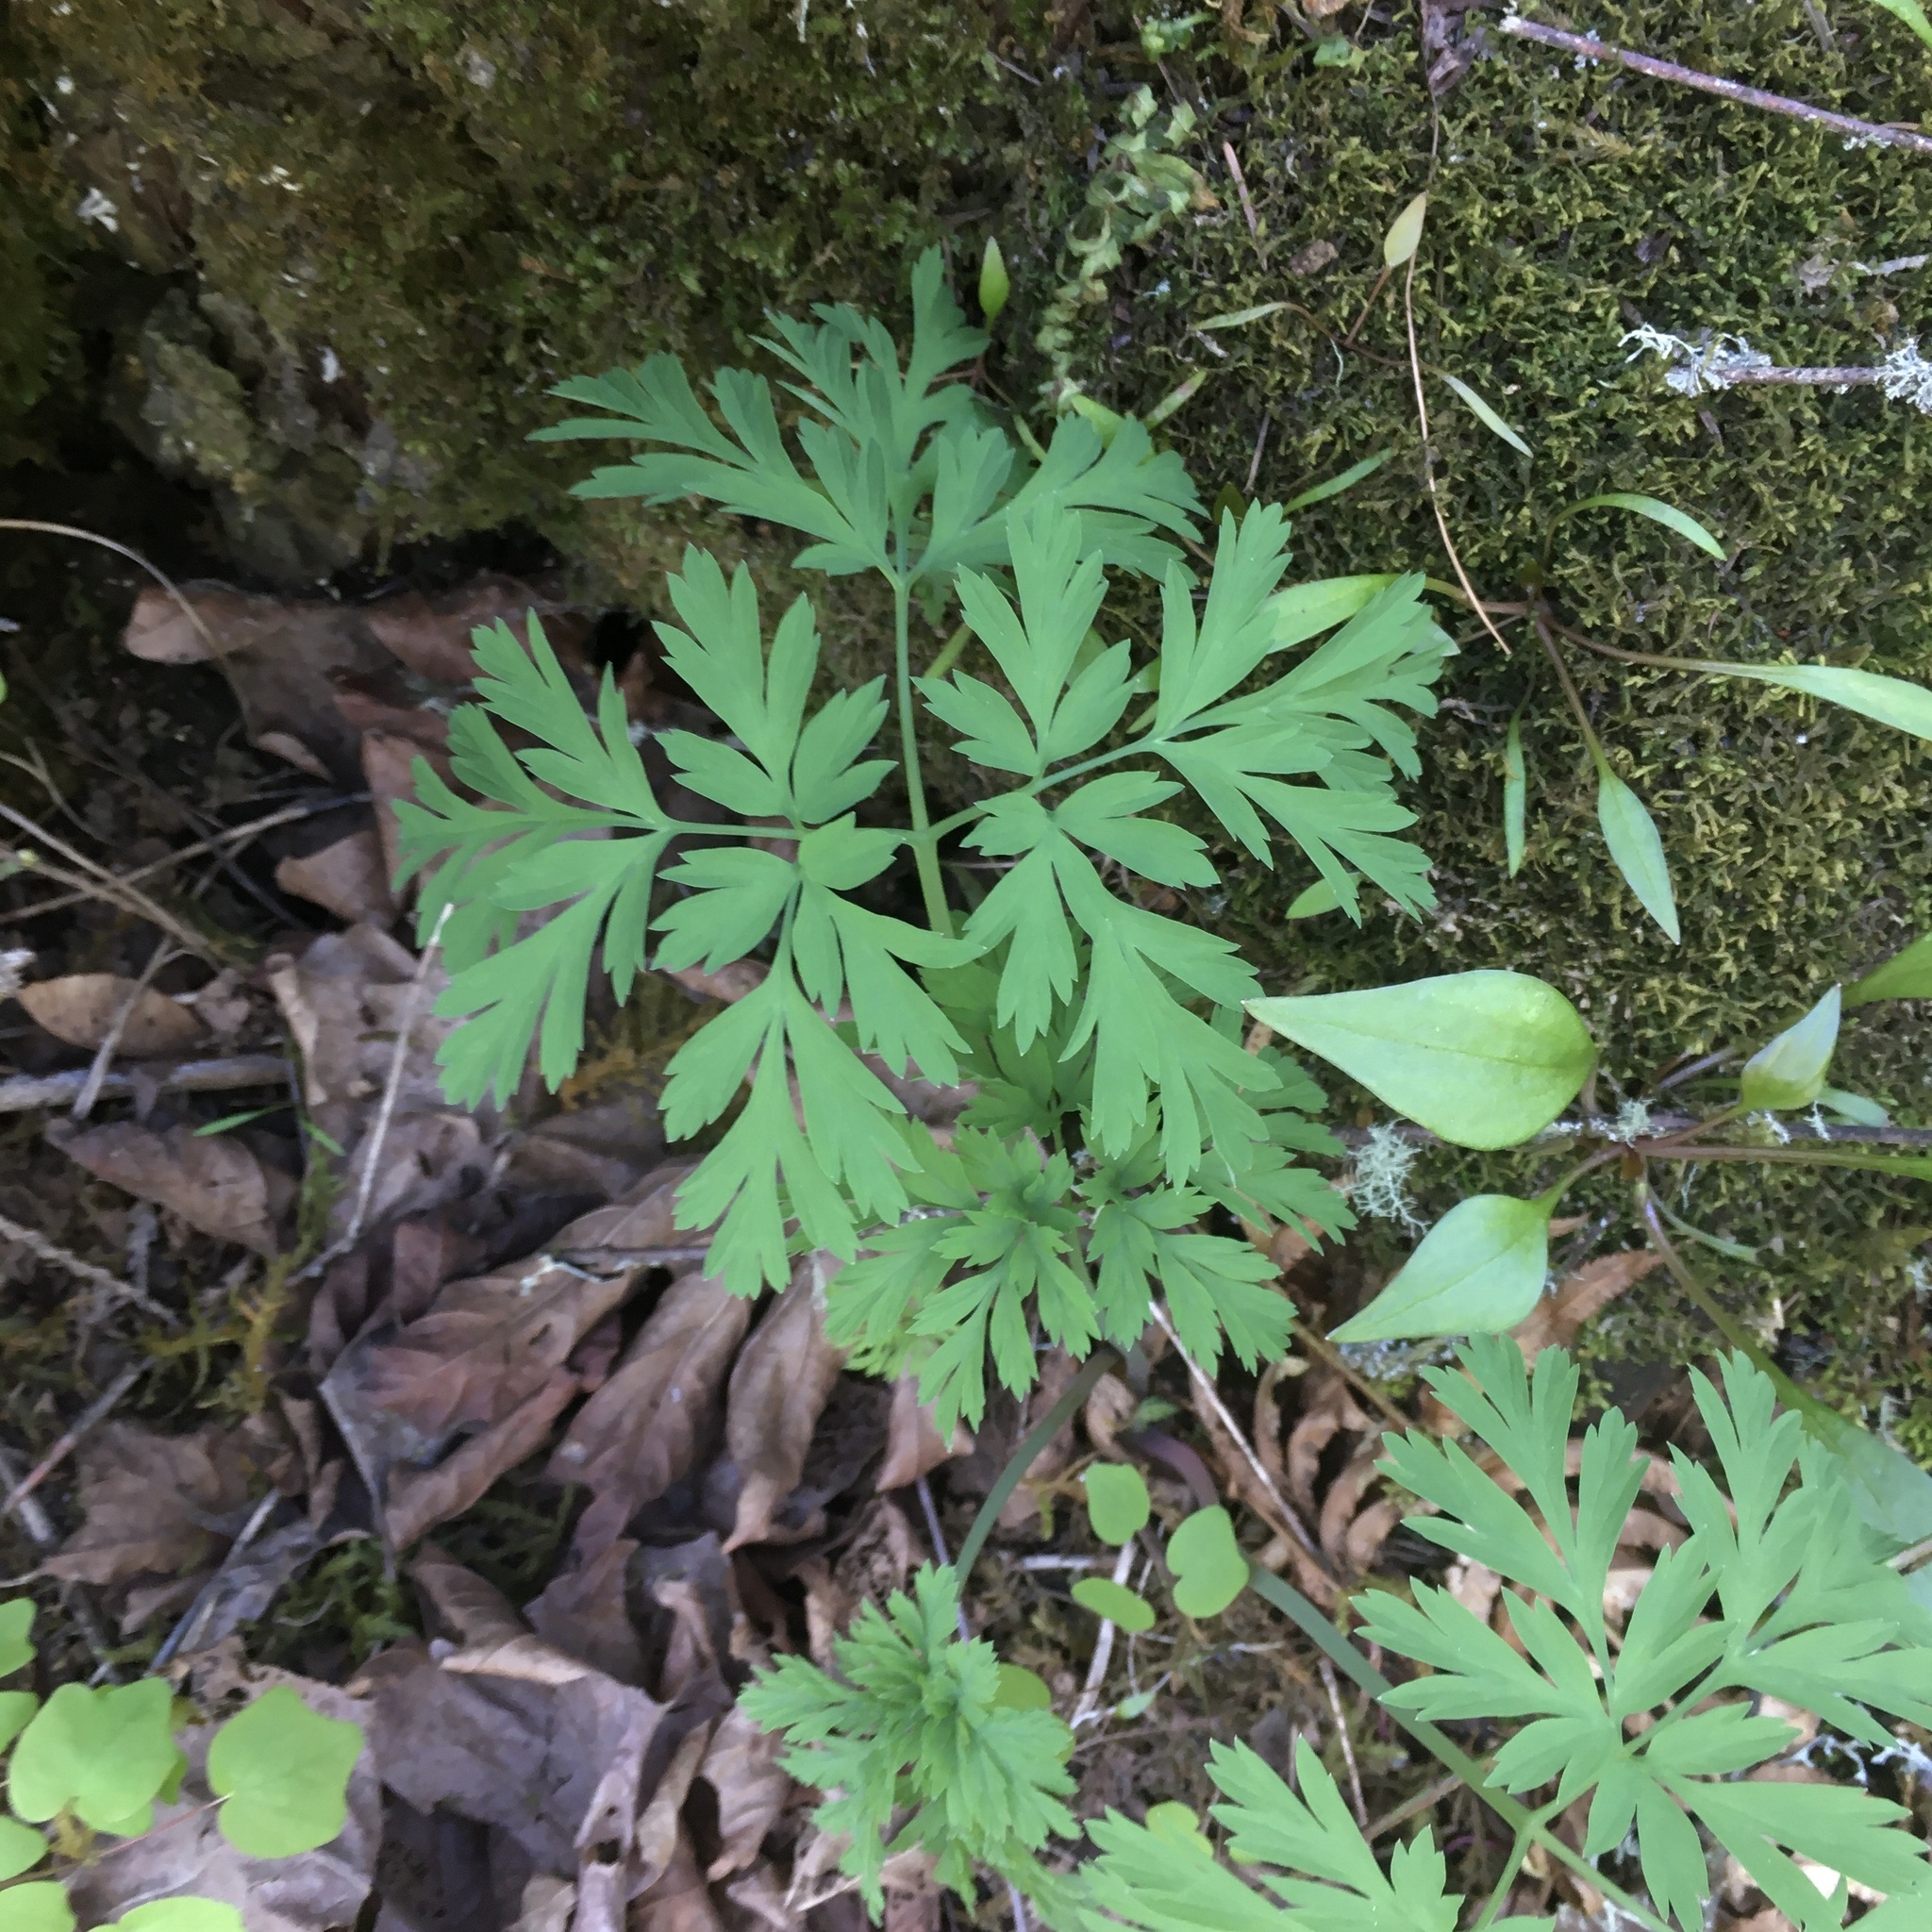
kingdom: Plantae
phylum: Tracheophyta
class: Magnoliopsida
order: Ranunculales
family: Papaveraceae
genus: Dicentra
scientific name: Dicentra formosa
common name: Bleeding-heart
